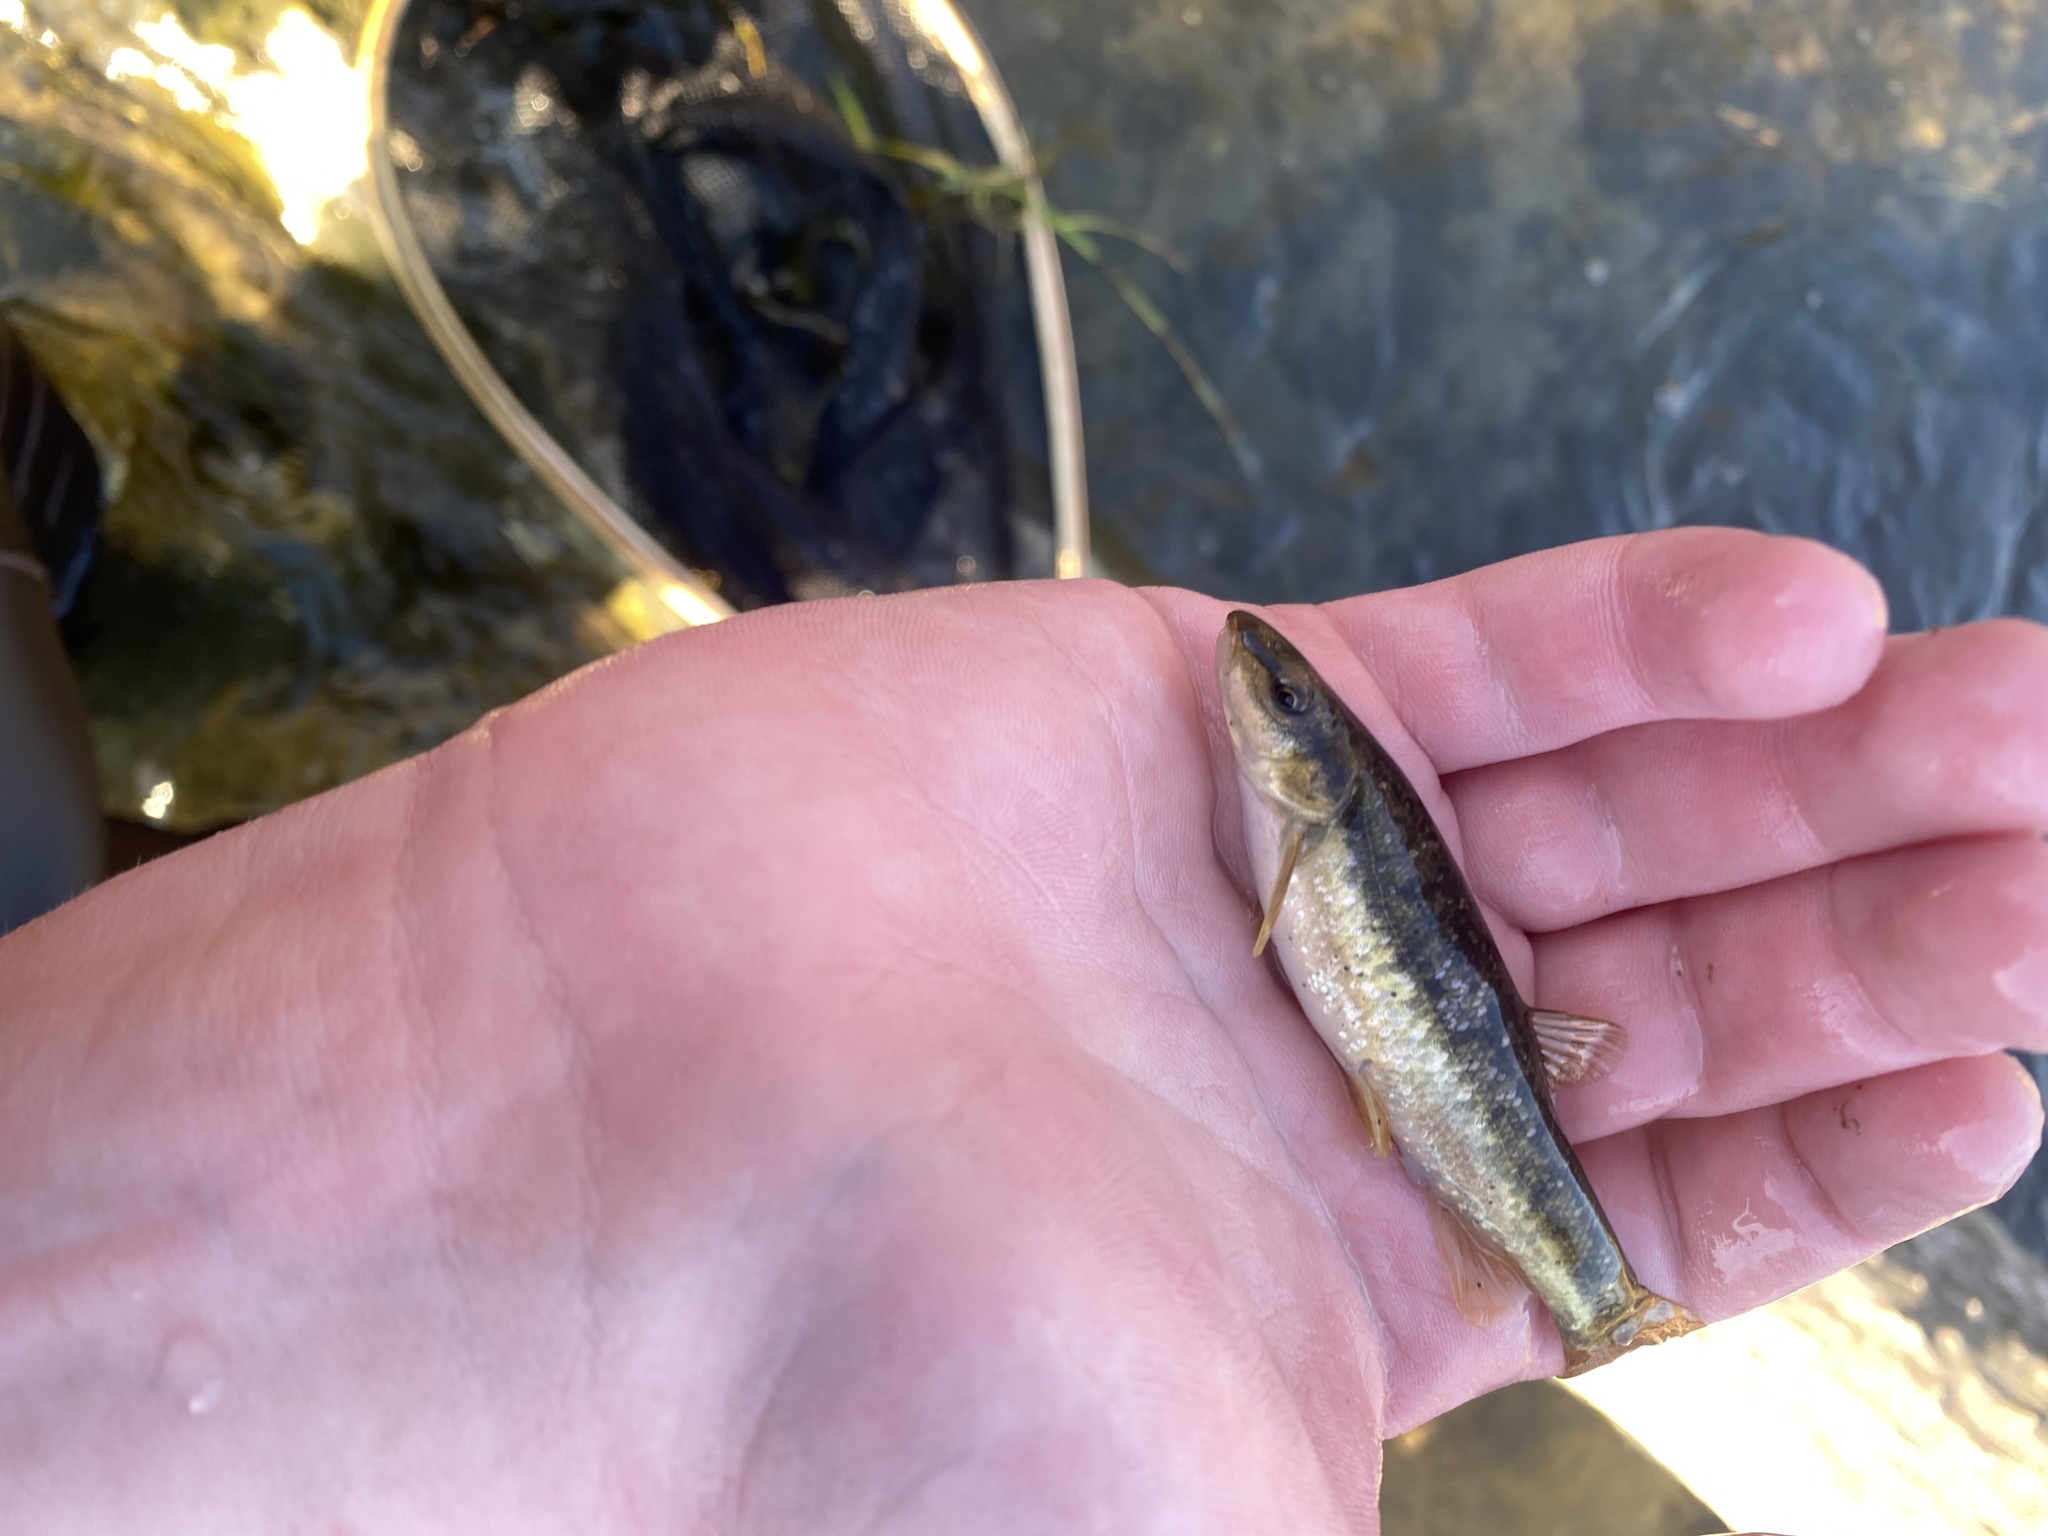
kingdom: Animalia
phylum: Chordata
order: Cypriniformes
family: Cyprinidae
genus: Rhinichthys
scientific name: Rhinichthys obtusus
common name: Western blacknose dace
